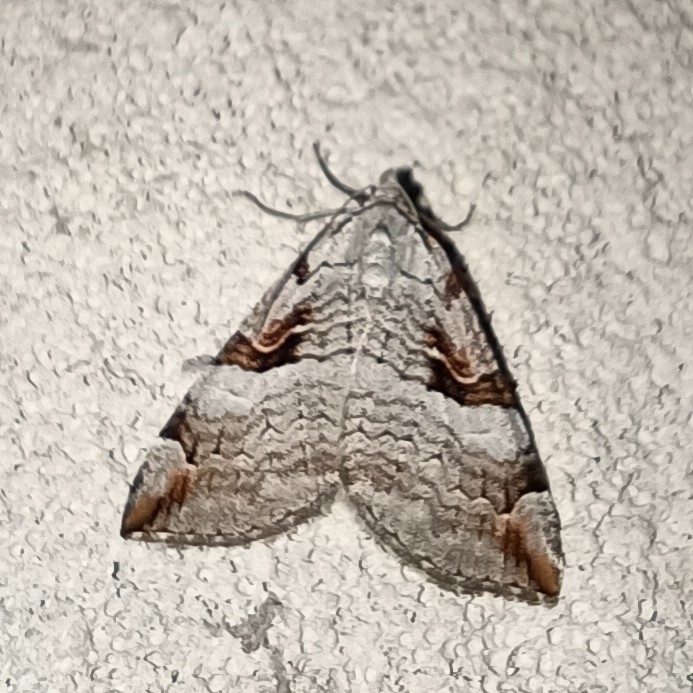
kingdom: Animalia
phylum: Arthropoda
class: Insecta
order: Lepidoptera
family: Geometridae
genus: Aplocera
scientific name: Aplocera praeformata
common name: Purple treble-bar
